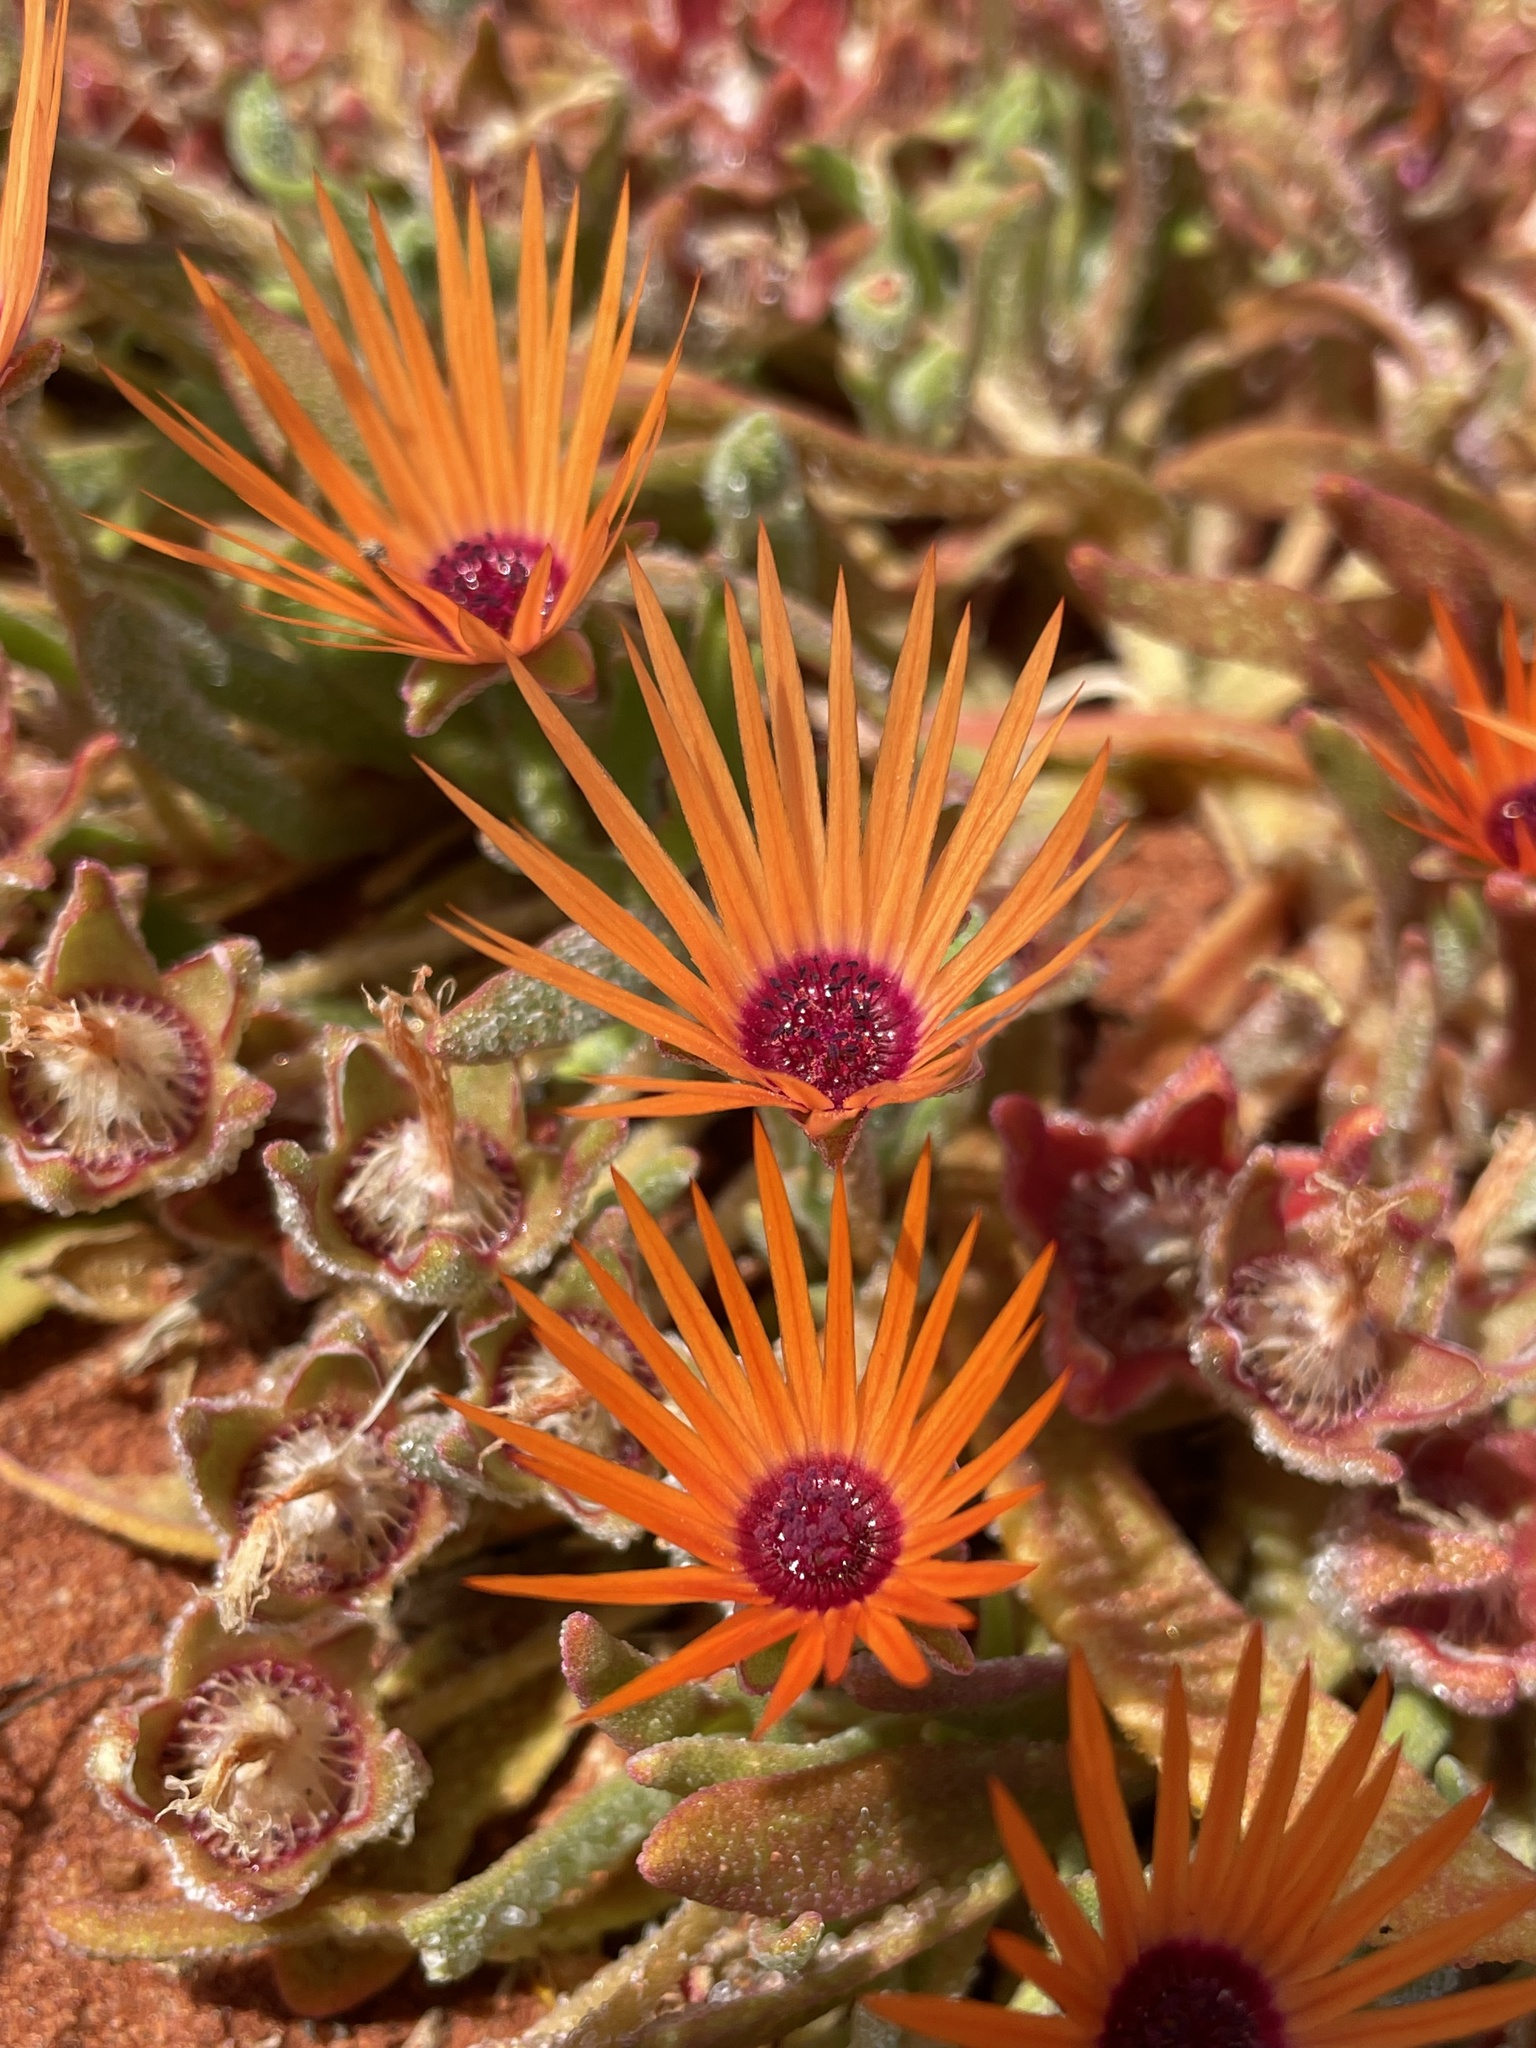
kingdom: Plantae
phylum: Tracheophyta
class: Magnoliopsida
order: Caryophyllales
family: Aizoaceae
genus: Cleretum
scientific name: Cleretum rourkei
